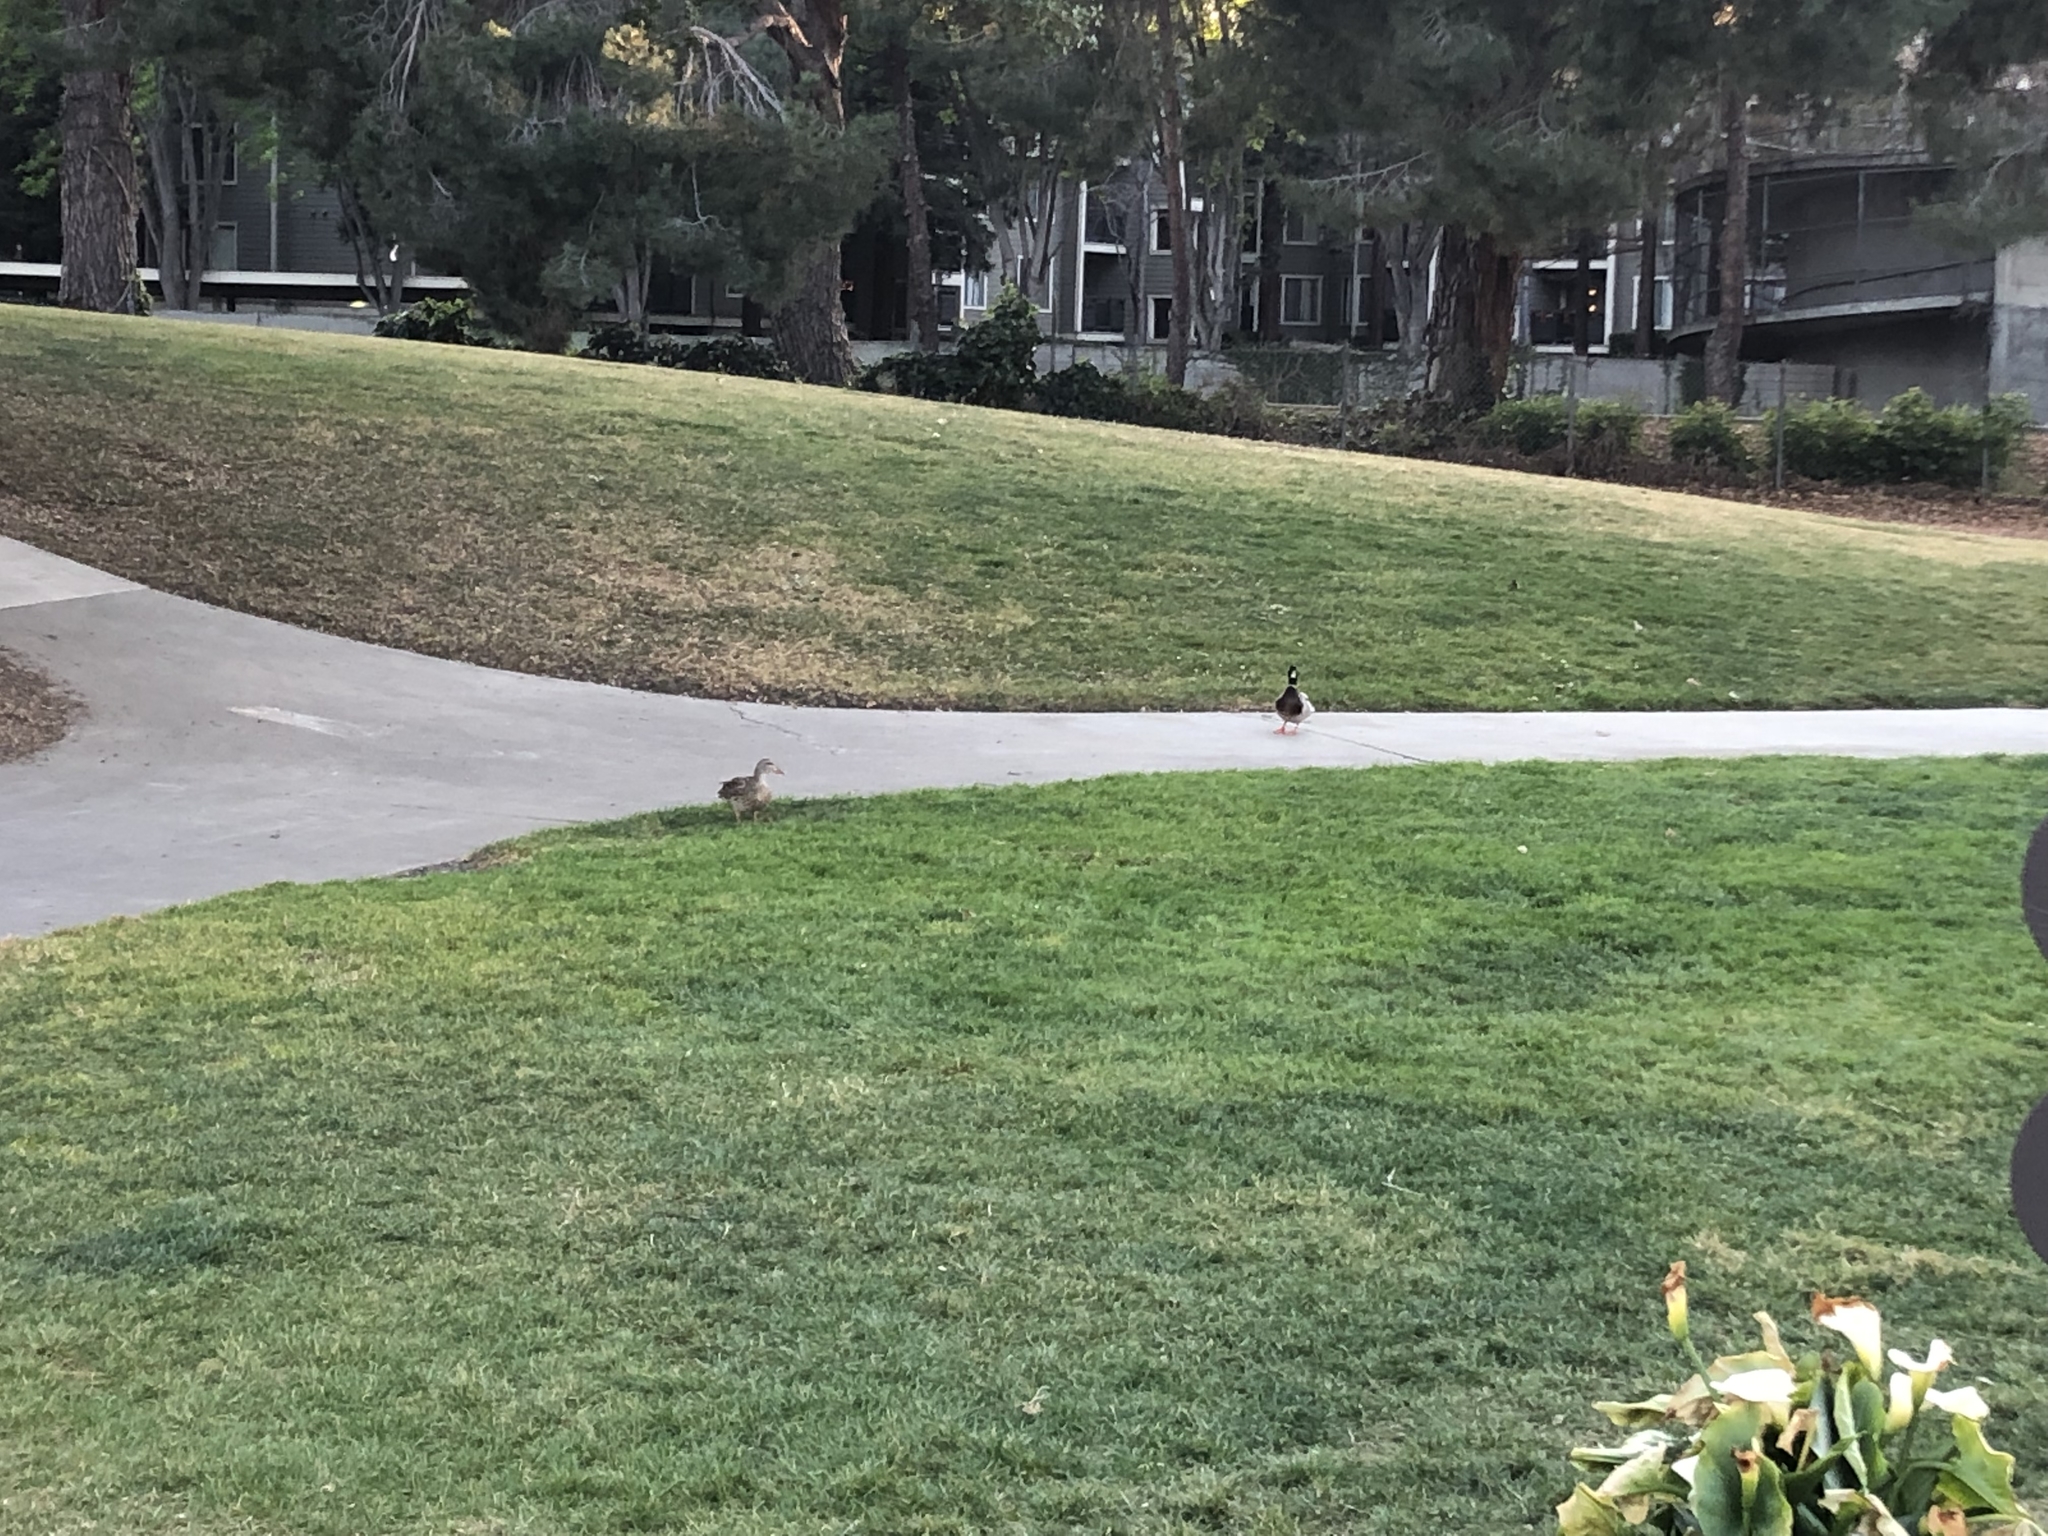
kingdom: Animalia
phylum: Chordata
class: Aves
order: Anseriformes
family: Anatidae
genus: Anas
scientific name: Anas platyrhynchos
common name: Mallard
